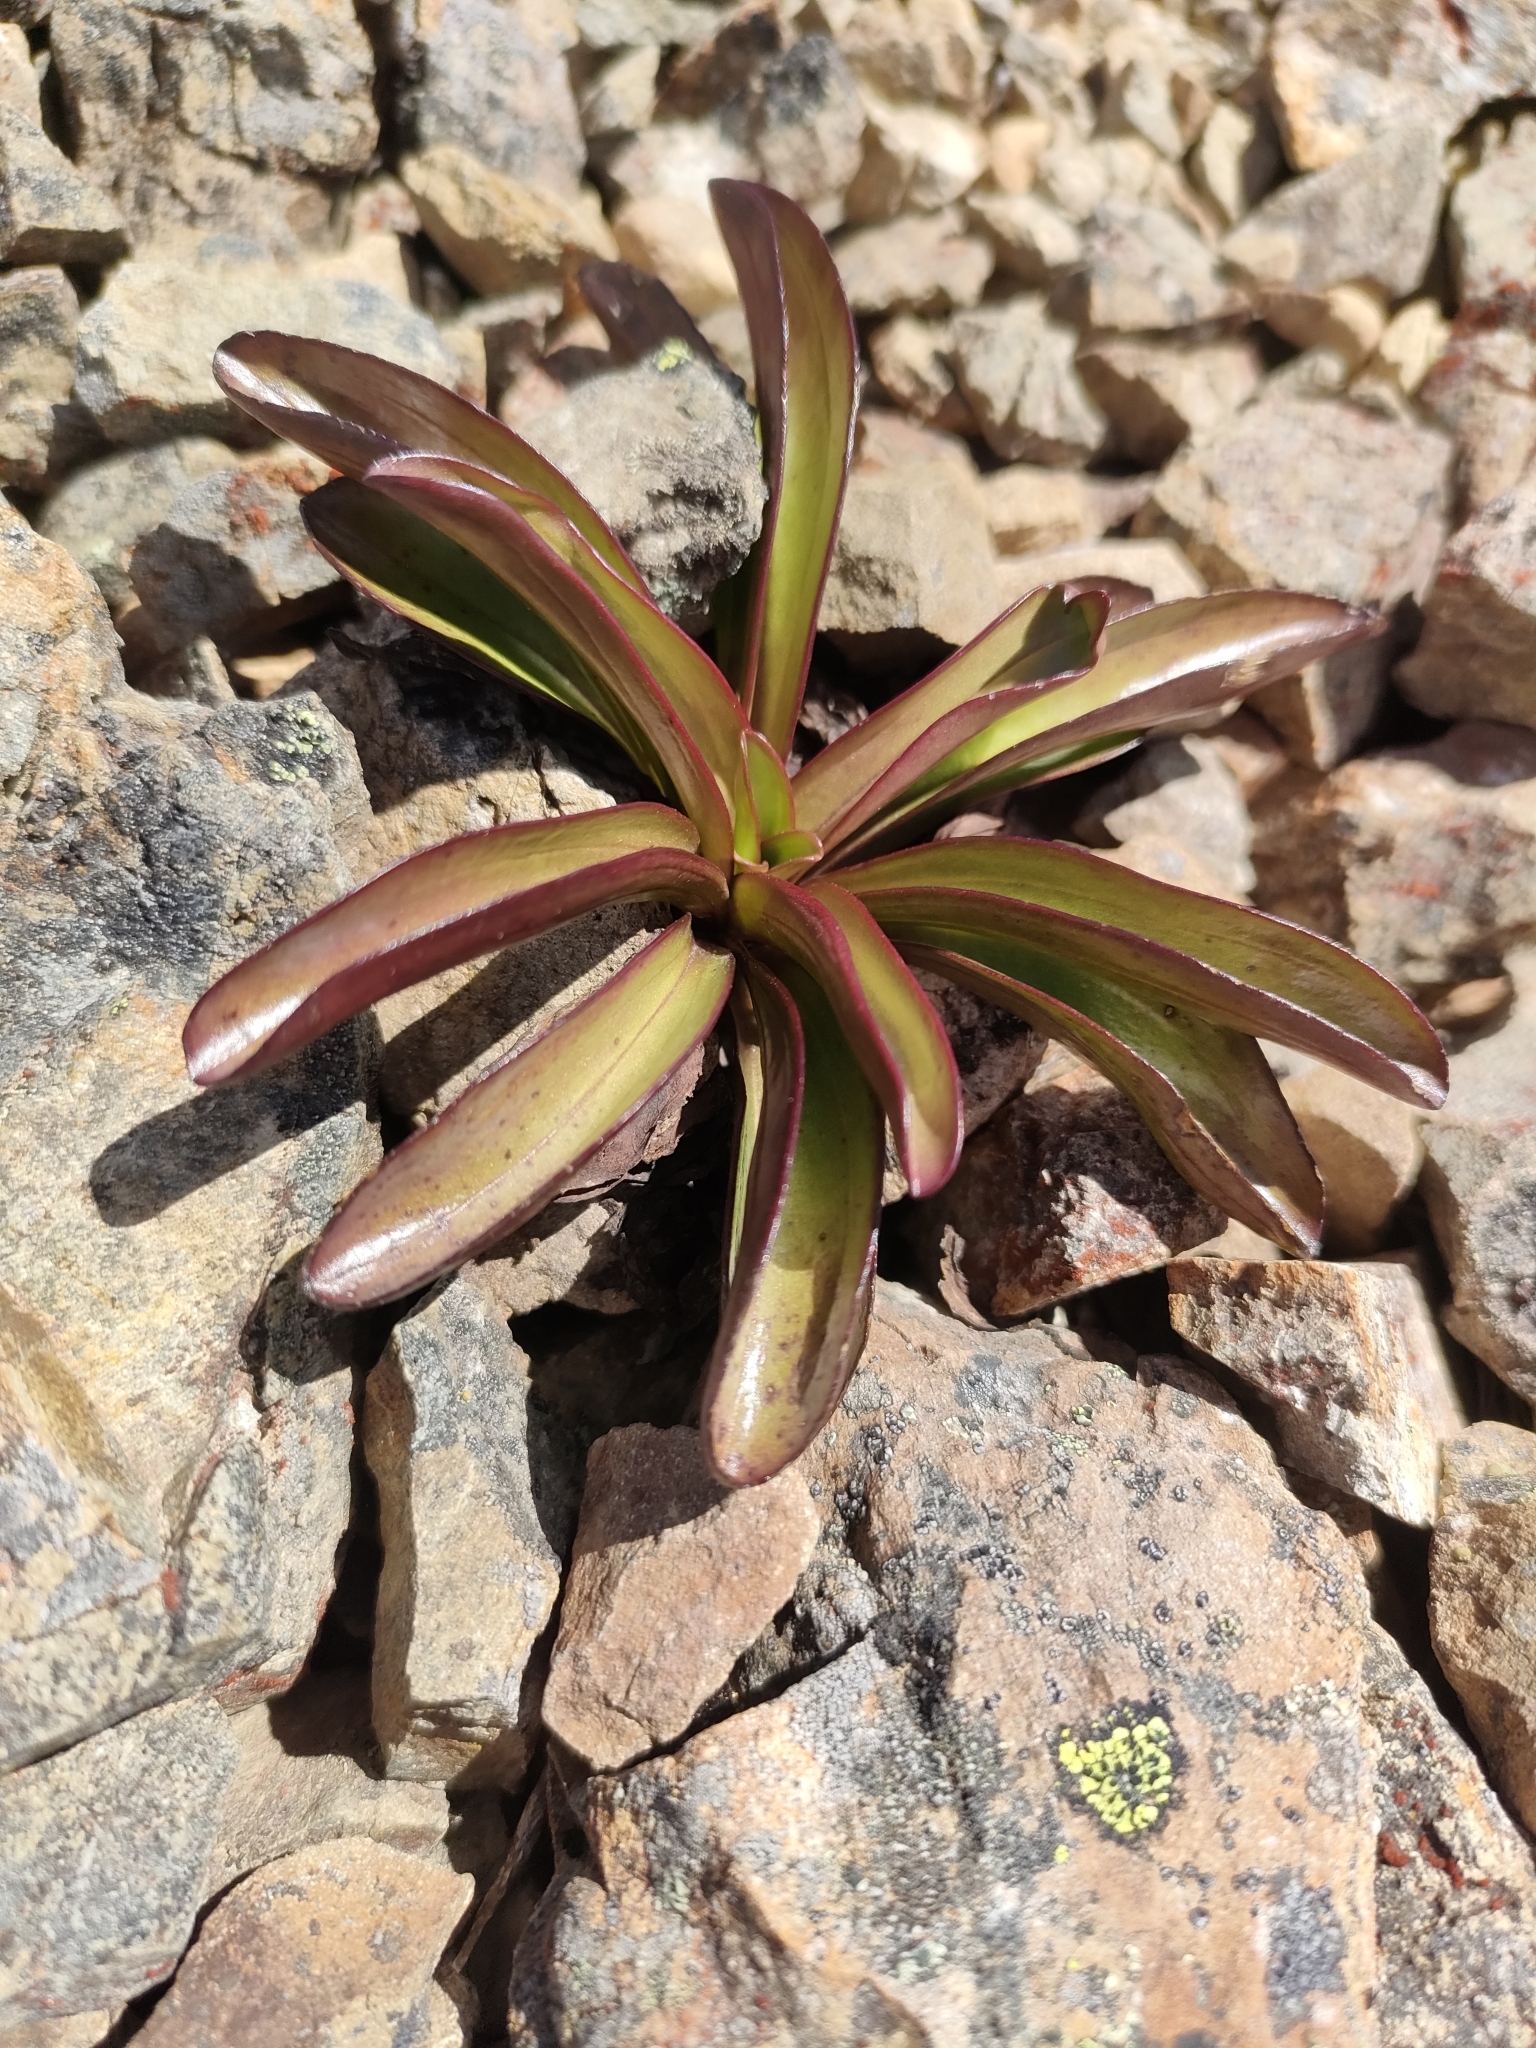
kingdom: Plantae
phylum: Tracheophyta
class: Magnoliopsida
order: Gentianales
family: Gentianaceae
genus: Gentianella
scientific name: Gentianella corymbifera
